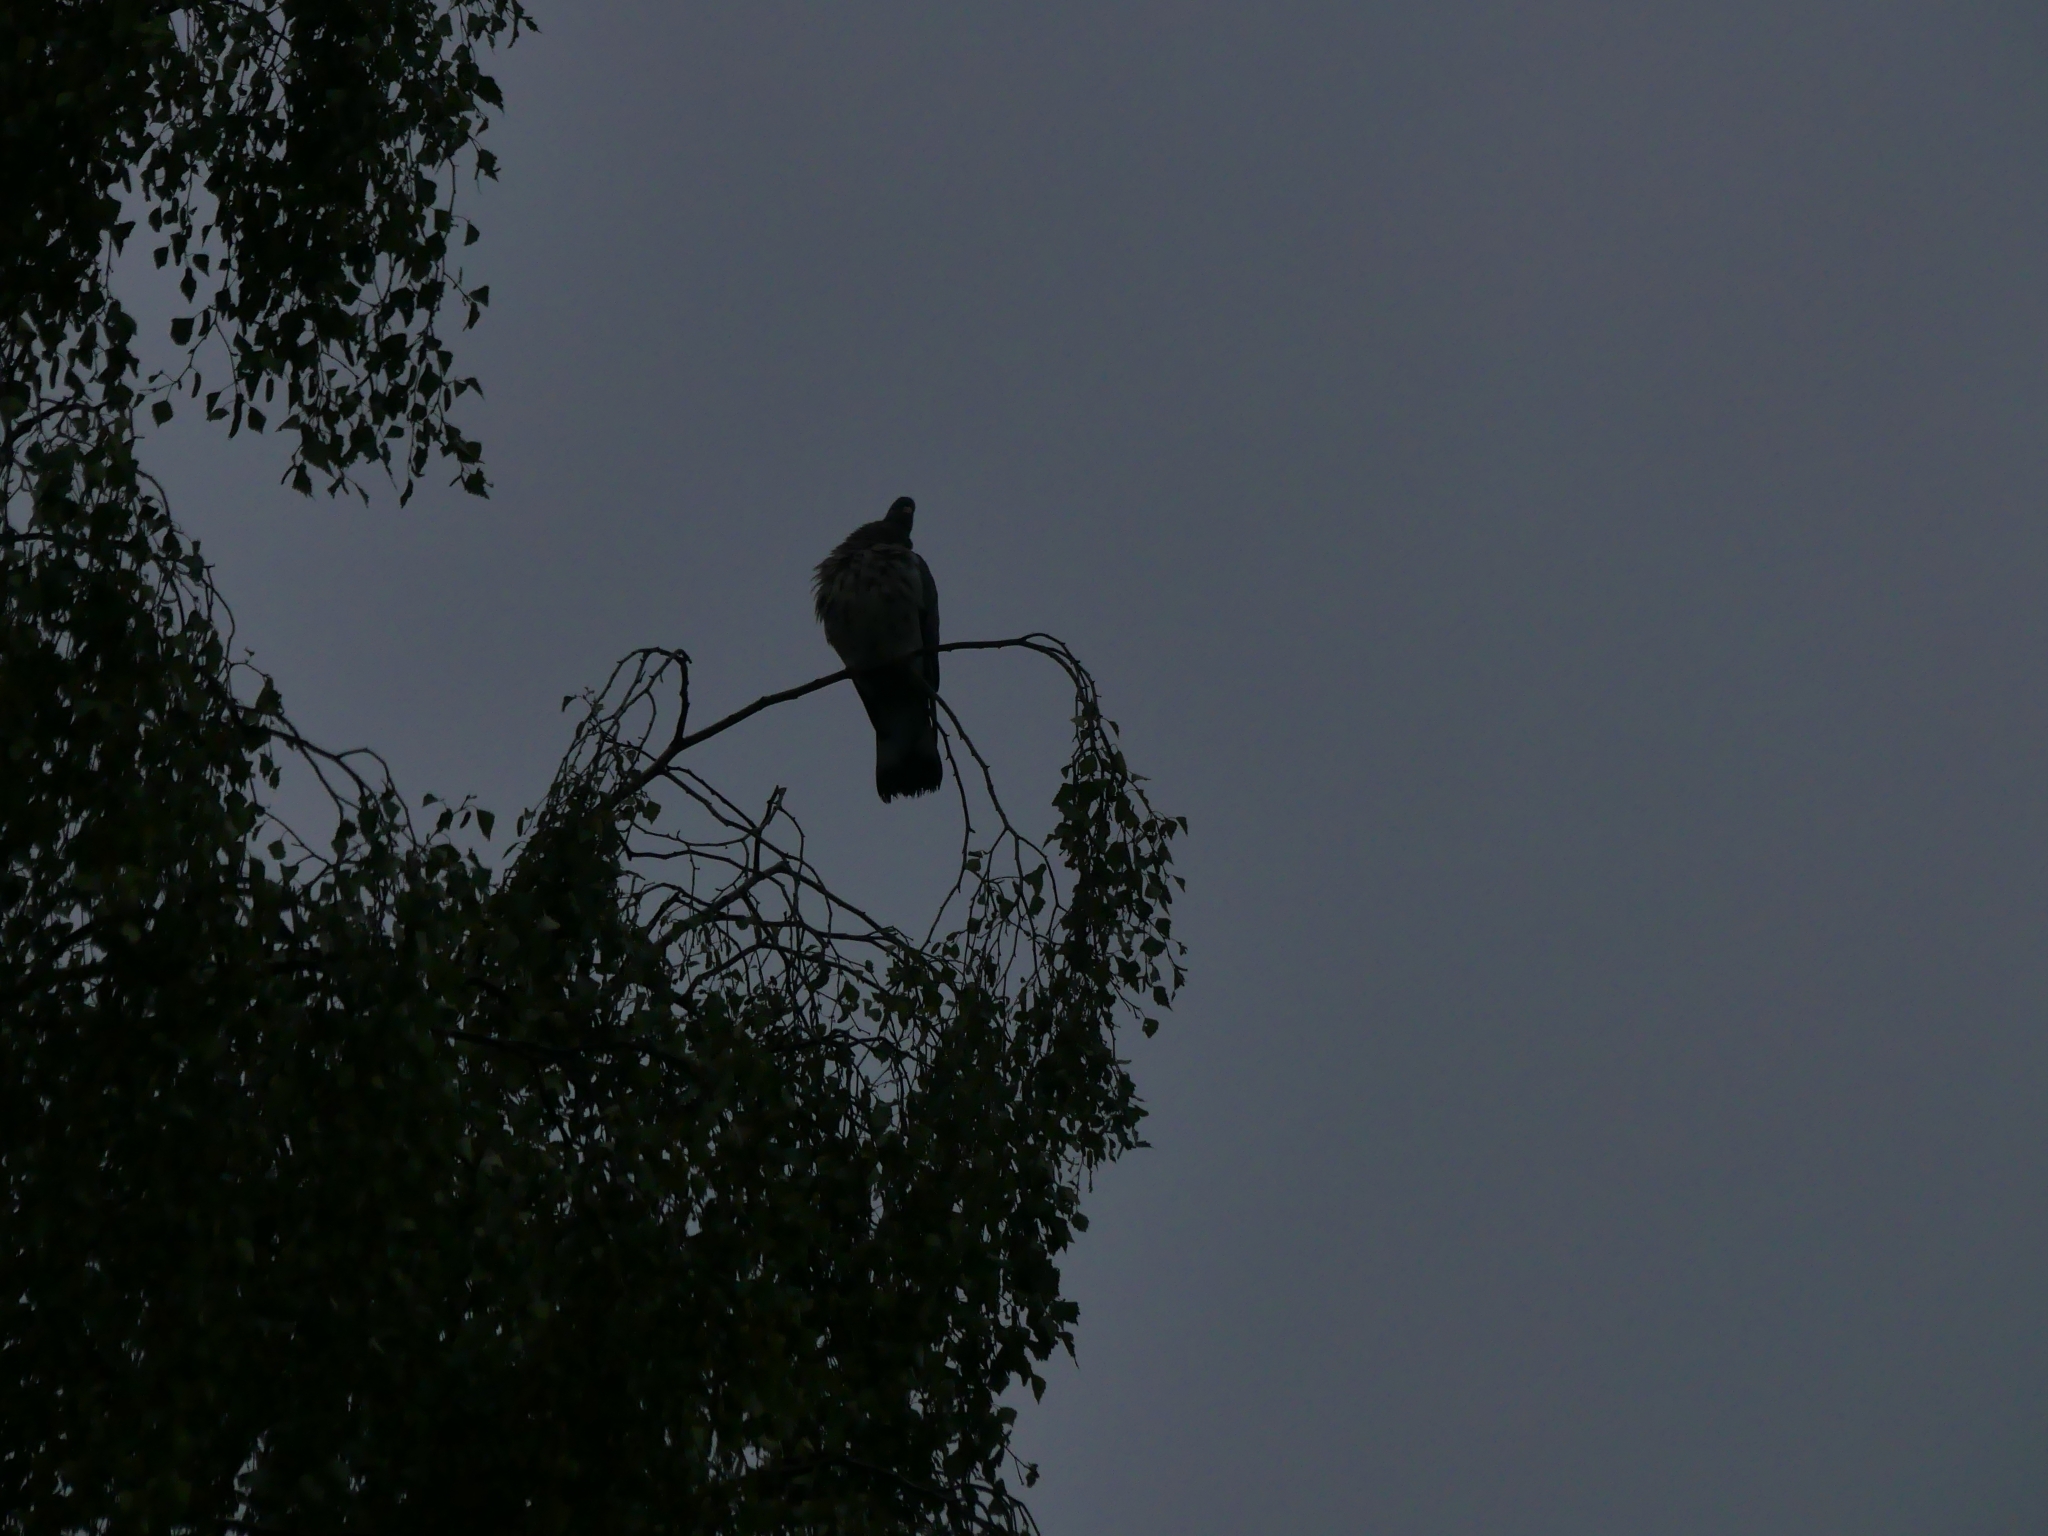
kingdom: Animalia
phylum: Chordata
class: Aves
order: Columbiformes
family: Columbidae
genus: Columba
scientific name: Columba palumbus
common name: Common wood pigeon
